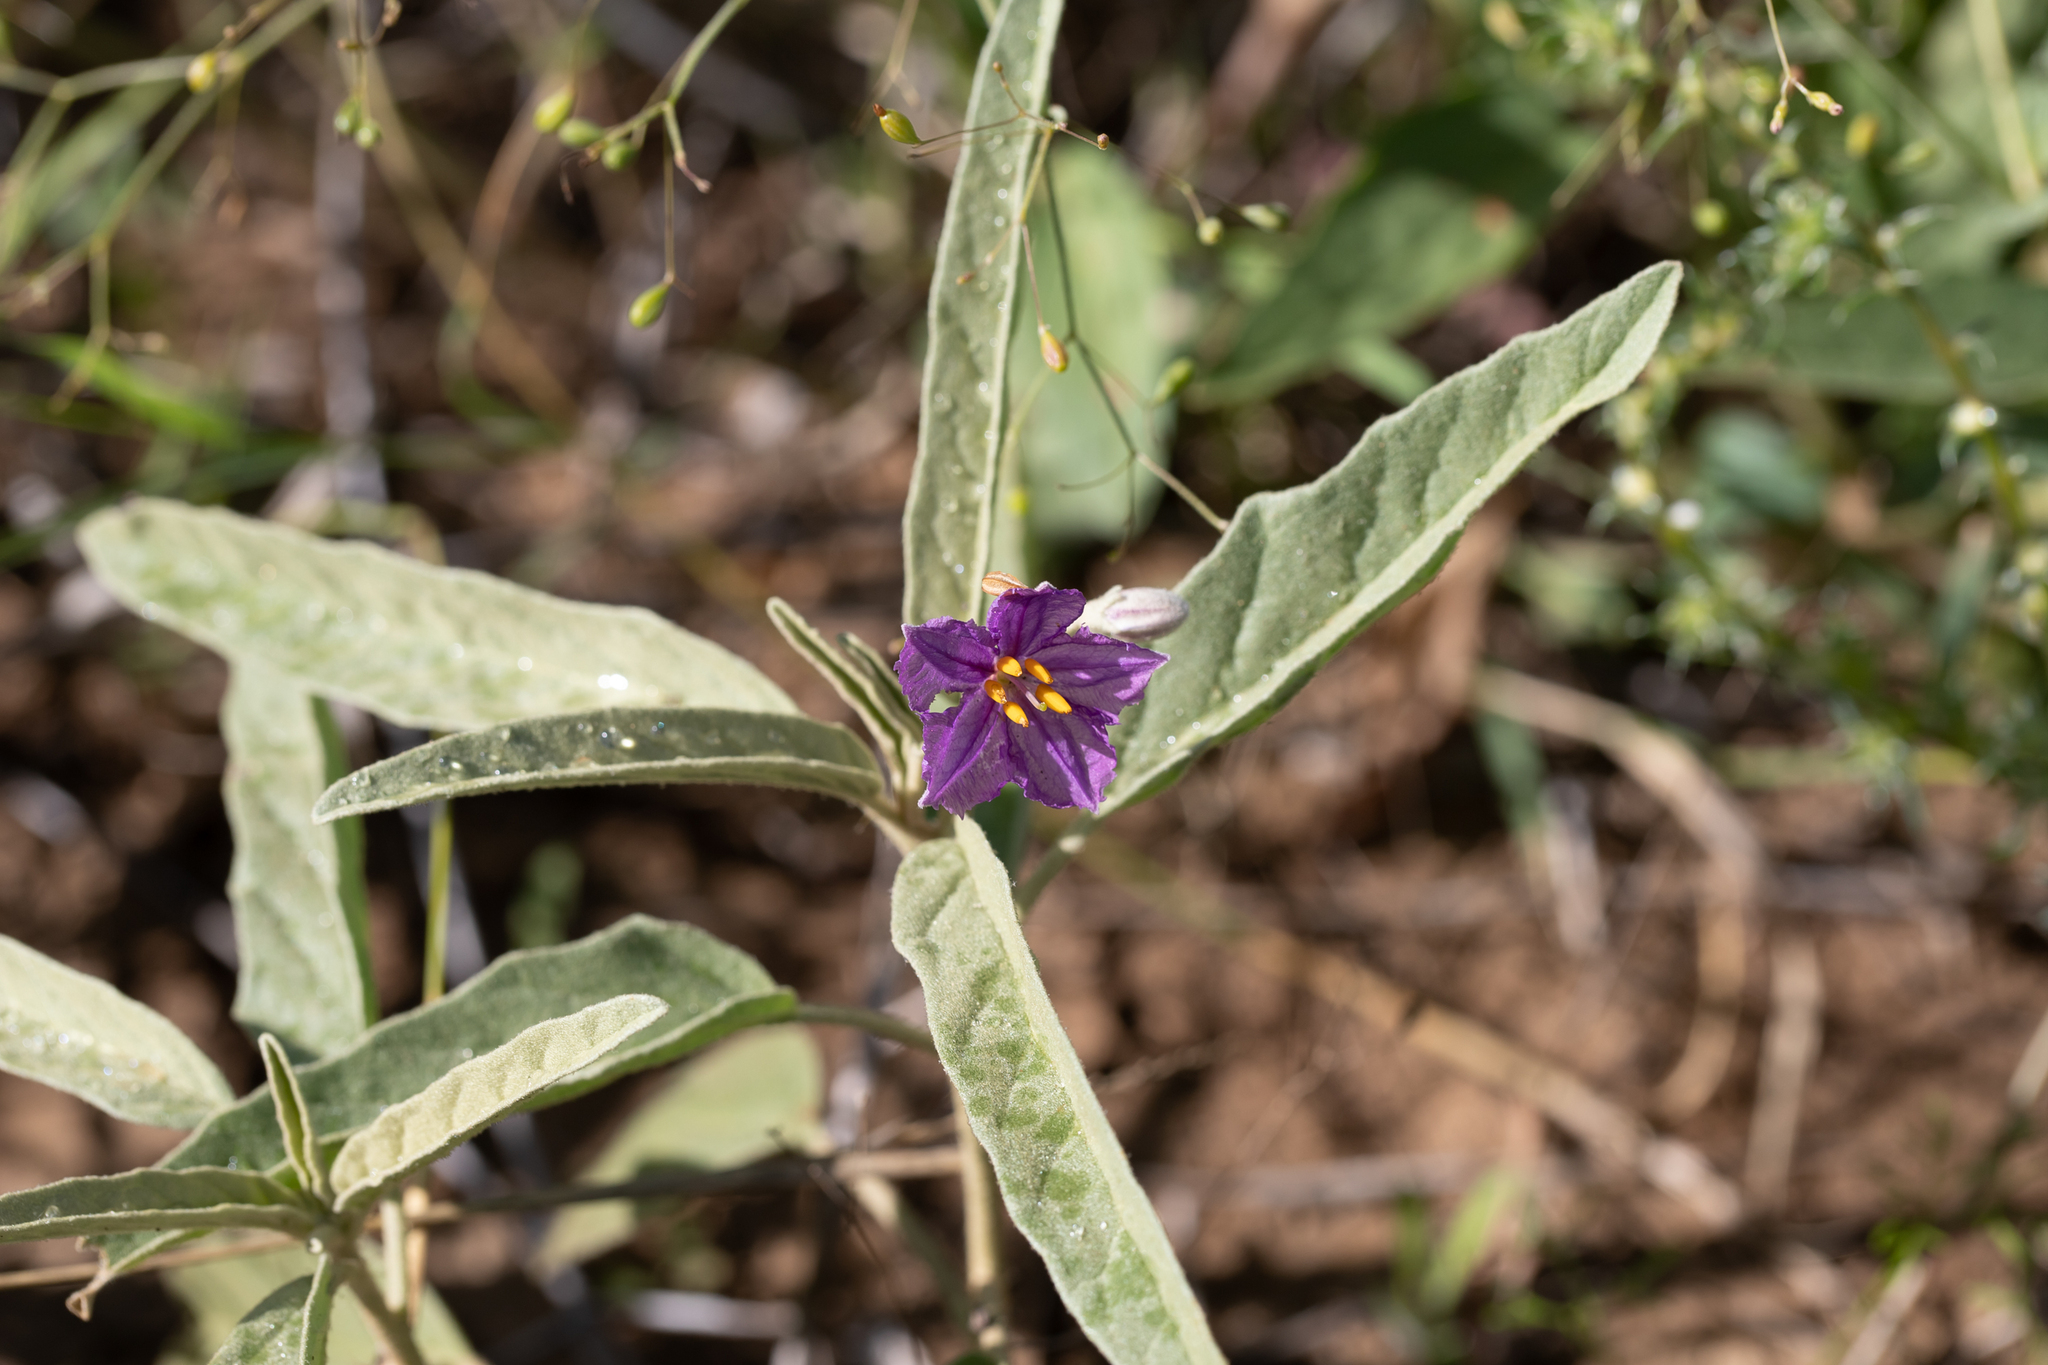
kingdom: Plantae
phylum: Tracheophyta
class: Magnoliopsida
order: Solanales
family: Solanaceae
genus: Solanum
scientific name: Solanum esuriale
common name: Wild tomato
